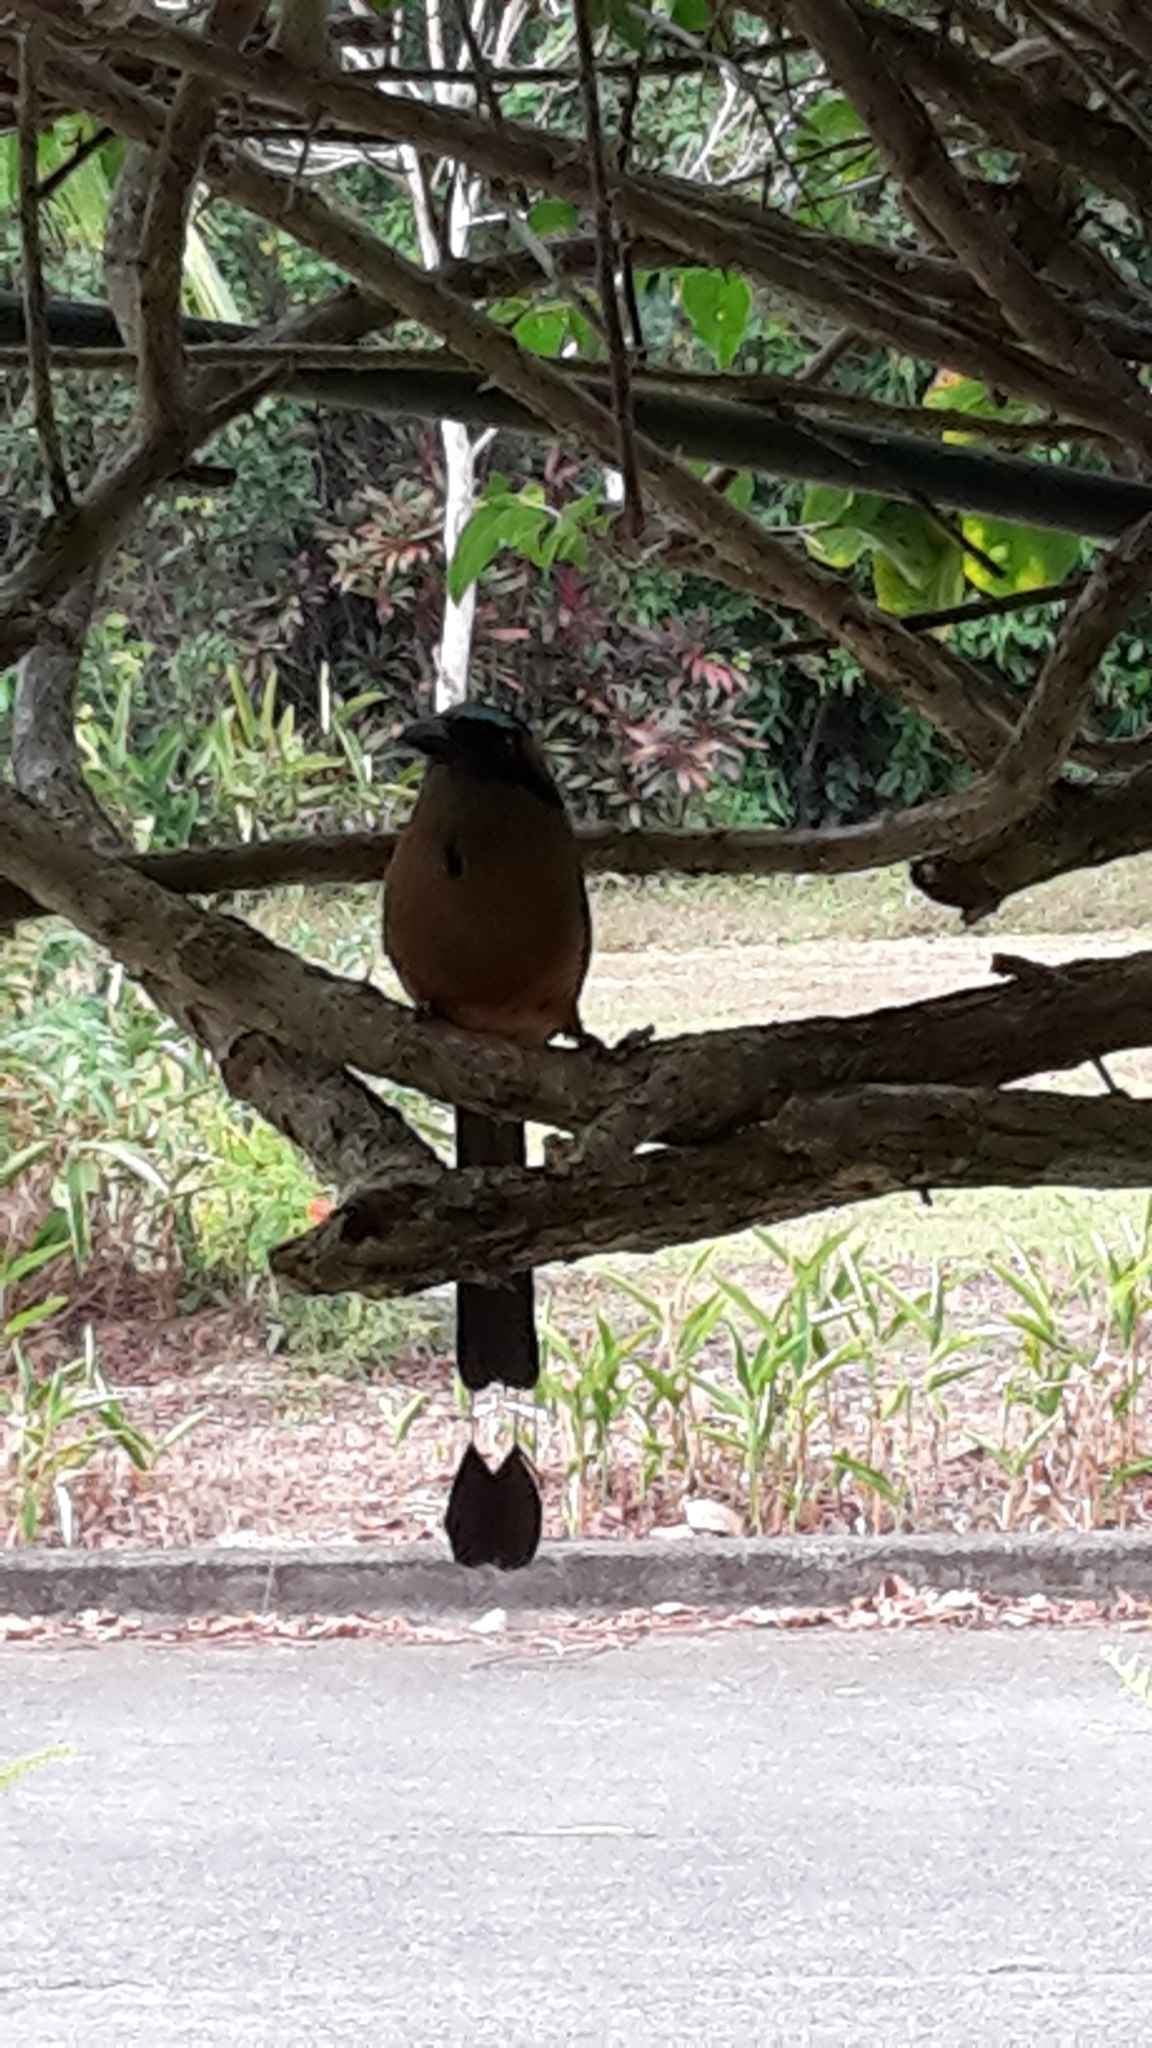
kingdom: Animalia
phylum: Chordata
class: Aves
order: Coraciiformes
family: Momotidae
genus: Momotus
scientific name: Momotus subrufescens
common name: Whooping motmot
